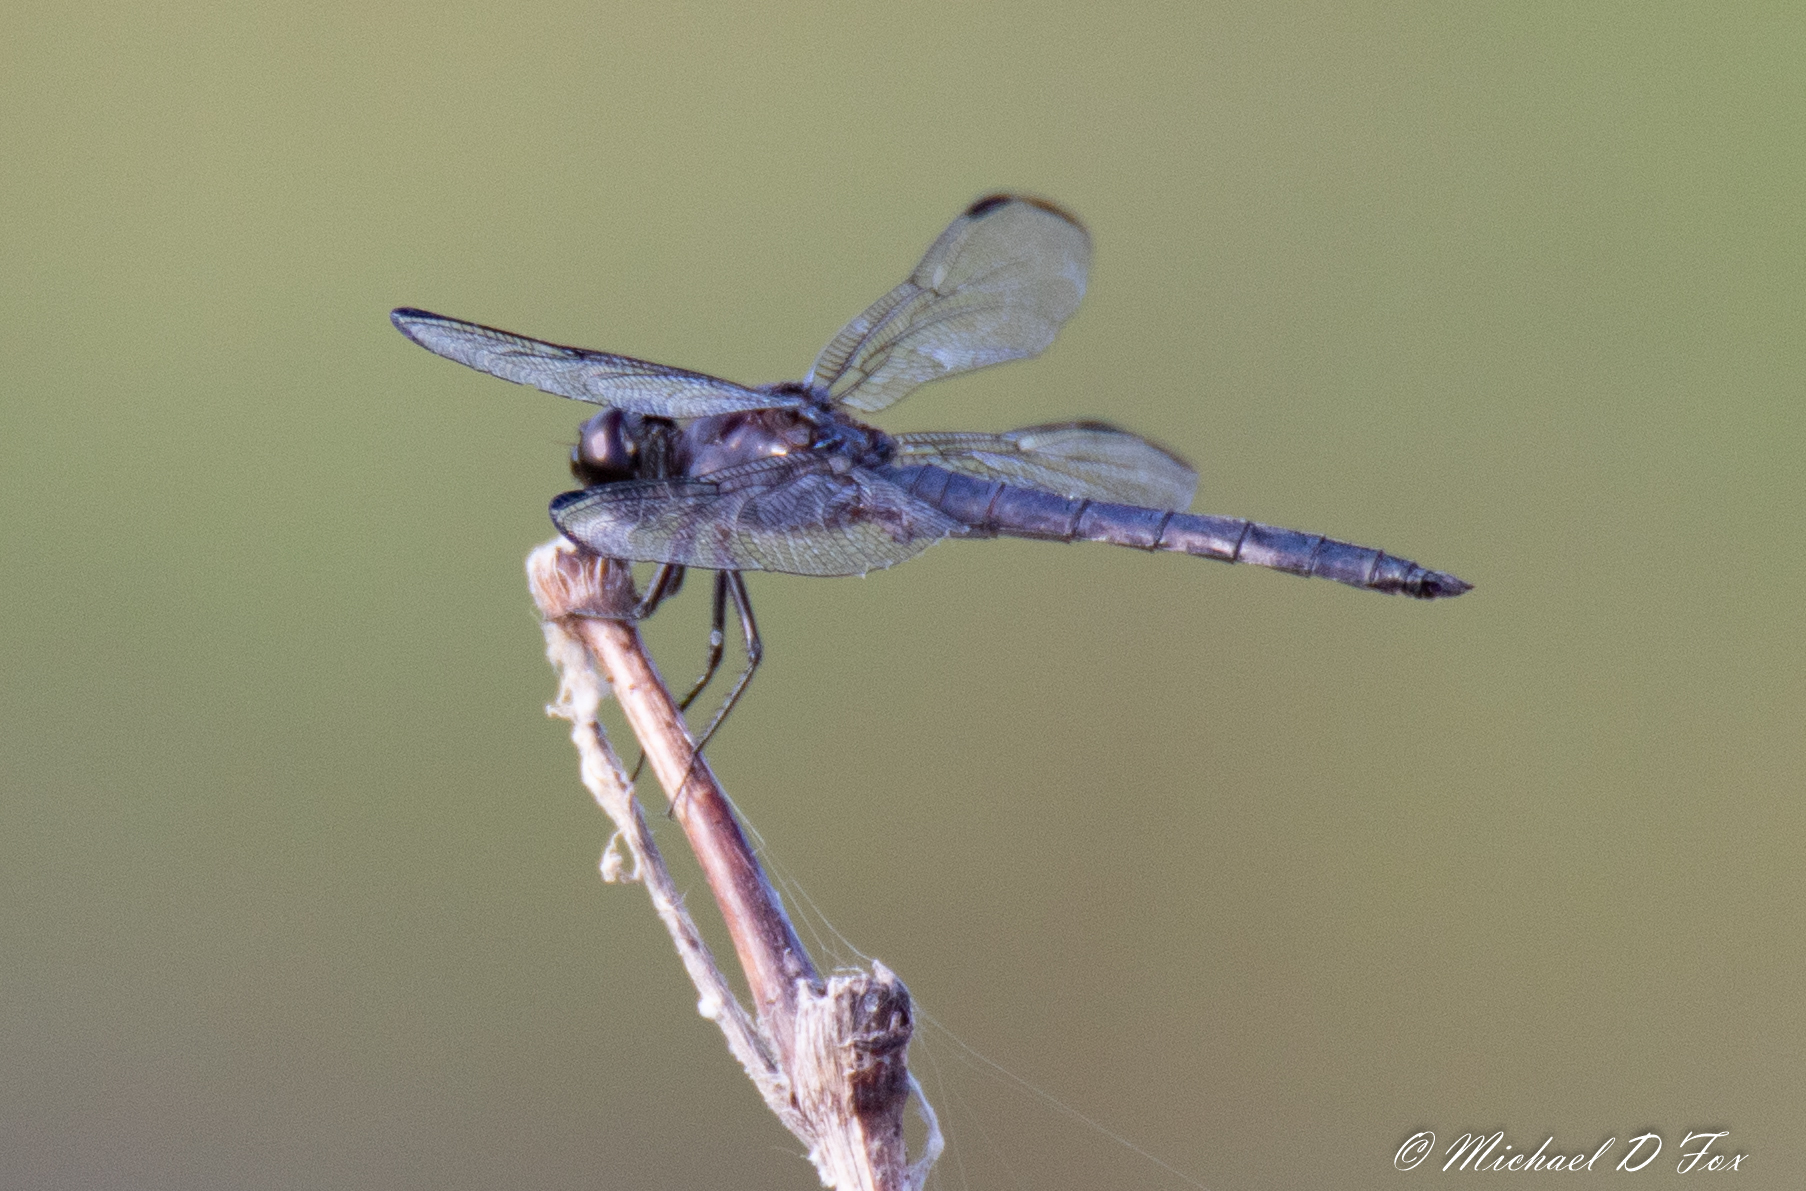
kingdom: Animalia
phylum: Arthropoda
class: Insecta
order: Odonata
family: Libellulidae
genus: Libellula
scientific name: Libellula incesta
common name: Slaty skimmer
